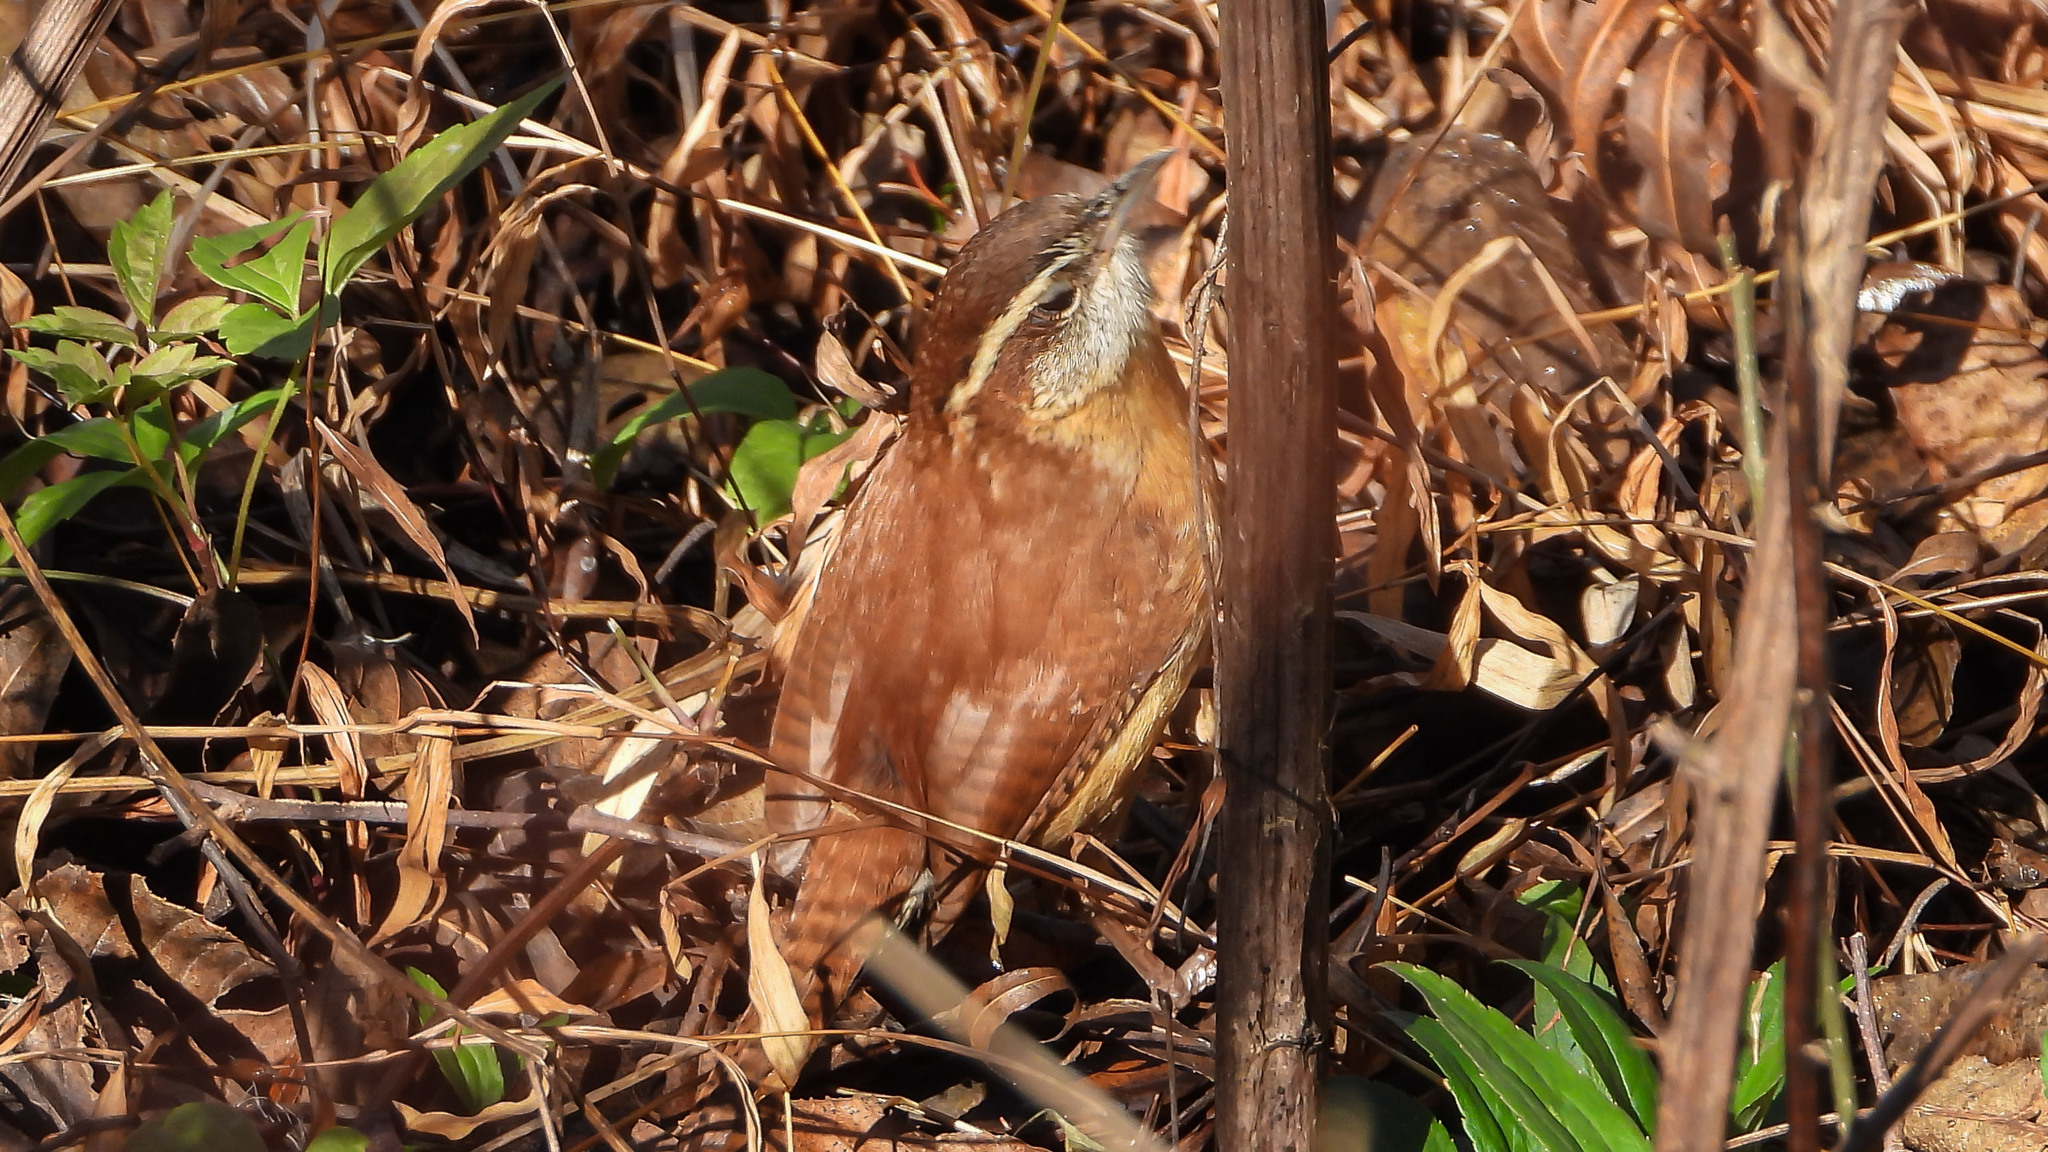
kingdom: Animalia
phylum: Chordata
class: Aves
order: Passeriformes
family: Troglodytidae
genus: Thryothorus
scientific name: Thryothorus ludovicianus
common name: Carolina wren
